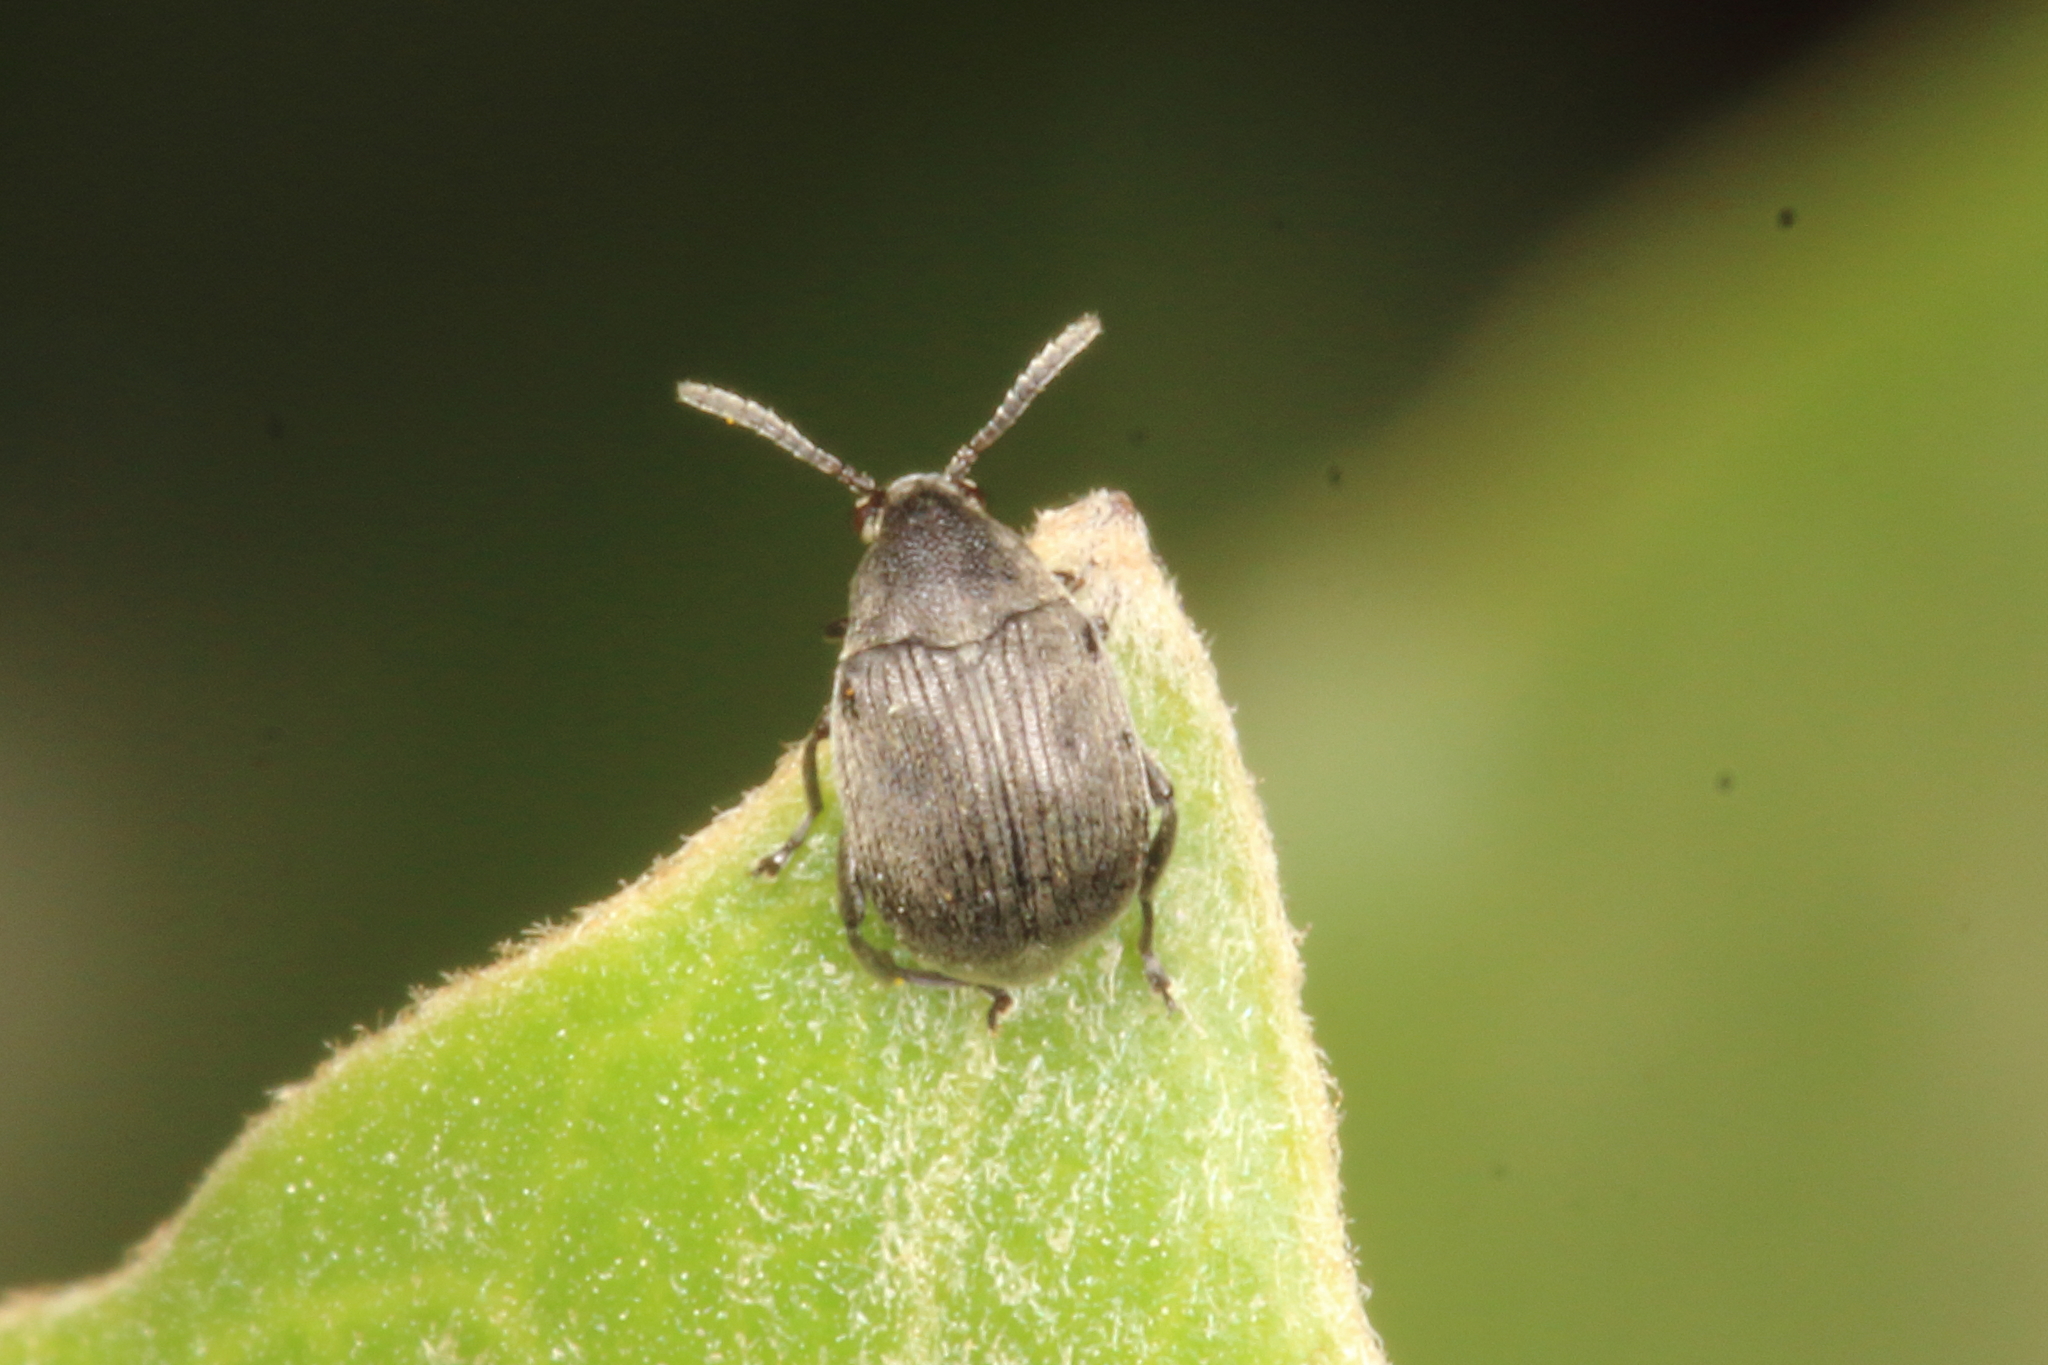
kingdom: Animalia
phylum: Arthropoda
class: Insecta
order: Coleoptera
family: Chrysomelidae
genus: Bruchidius
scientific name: Bruchidius villosus
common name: Scotch broom bruchid
